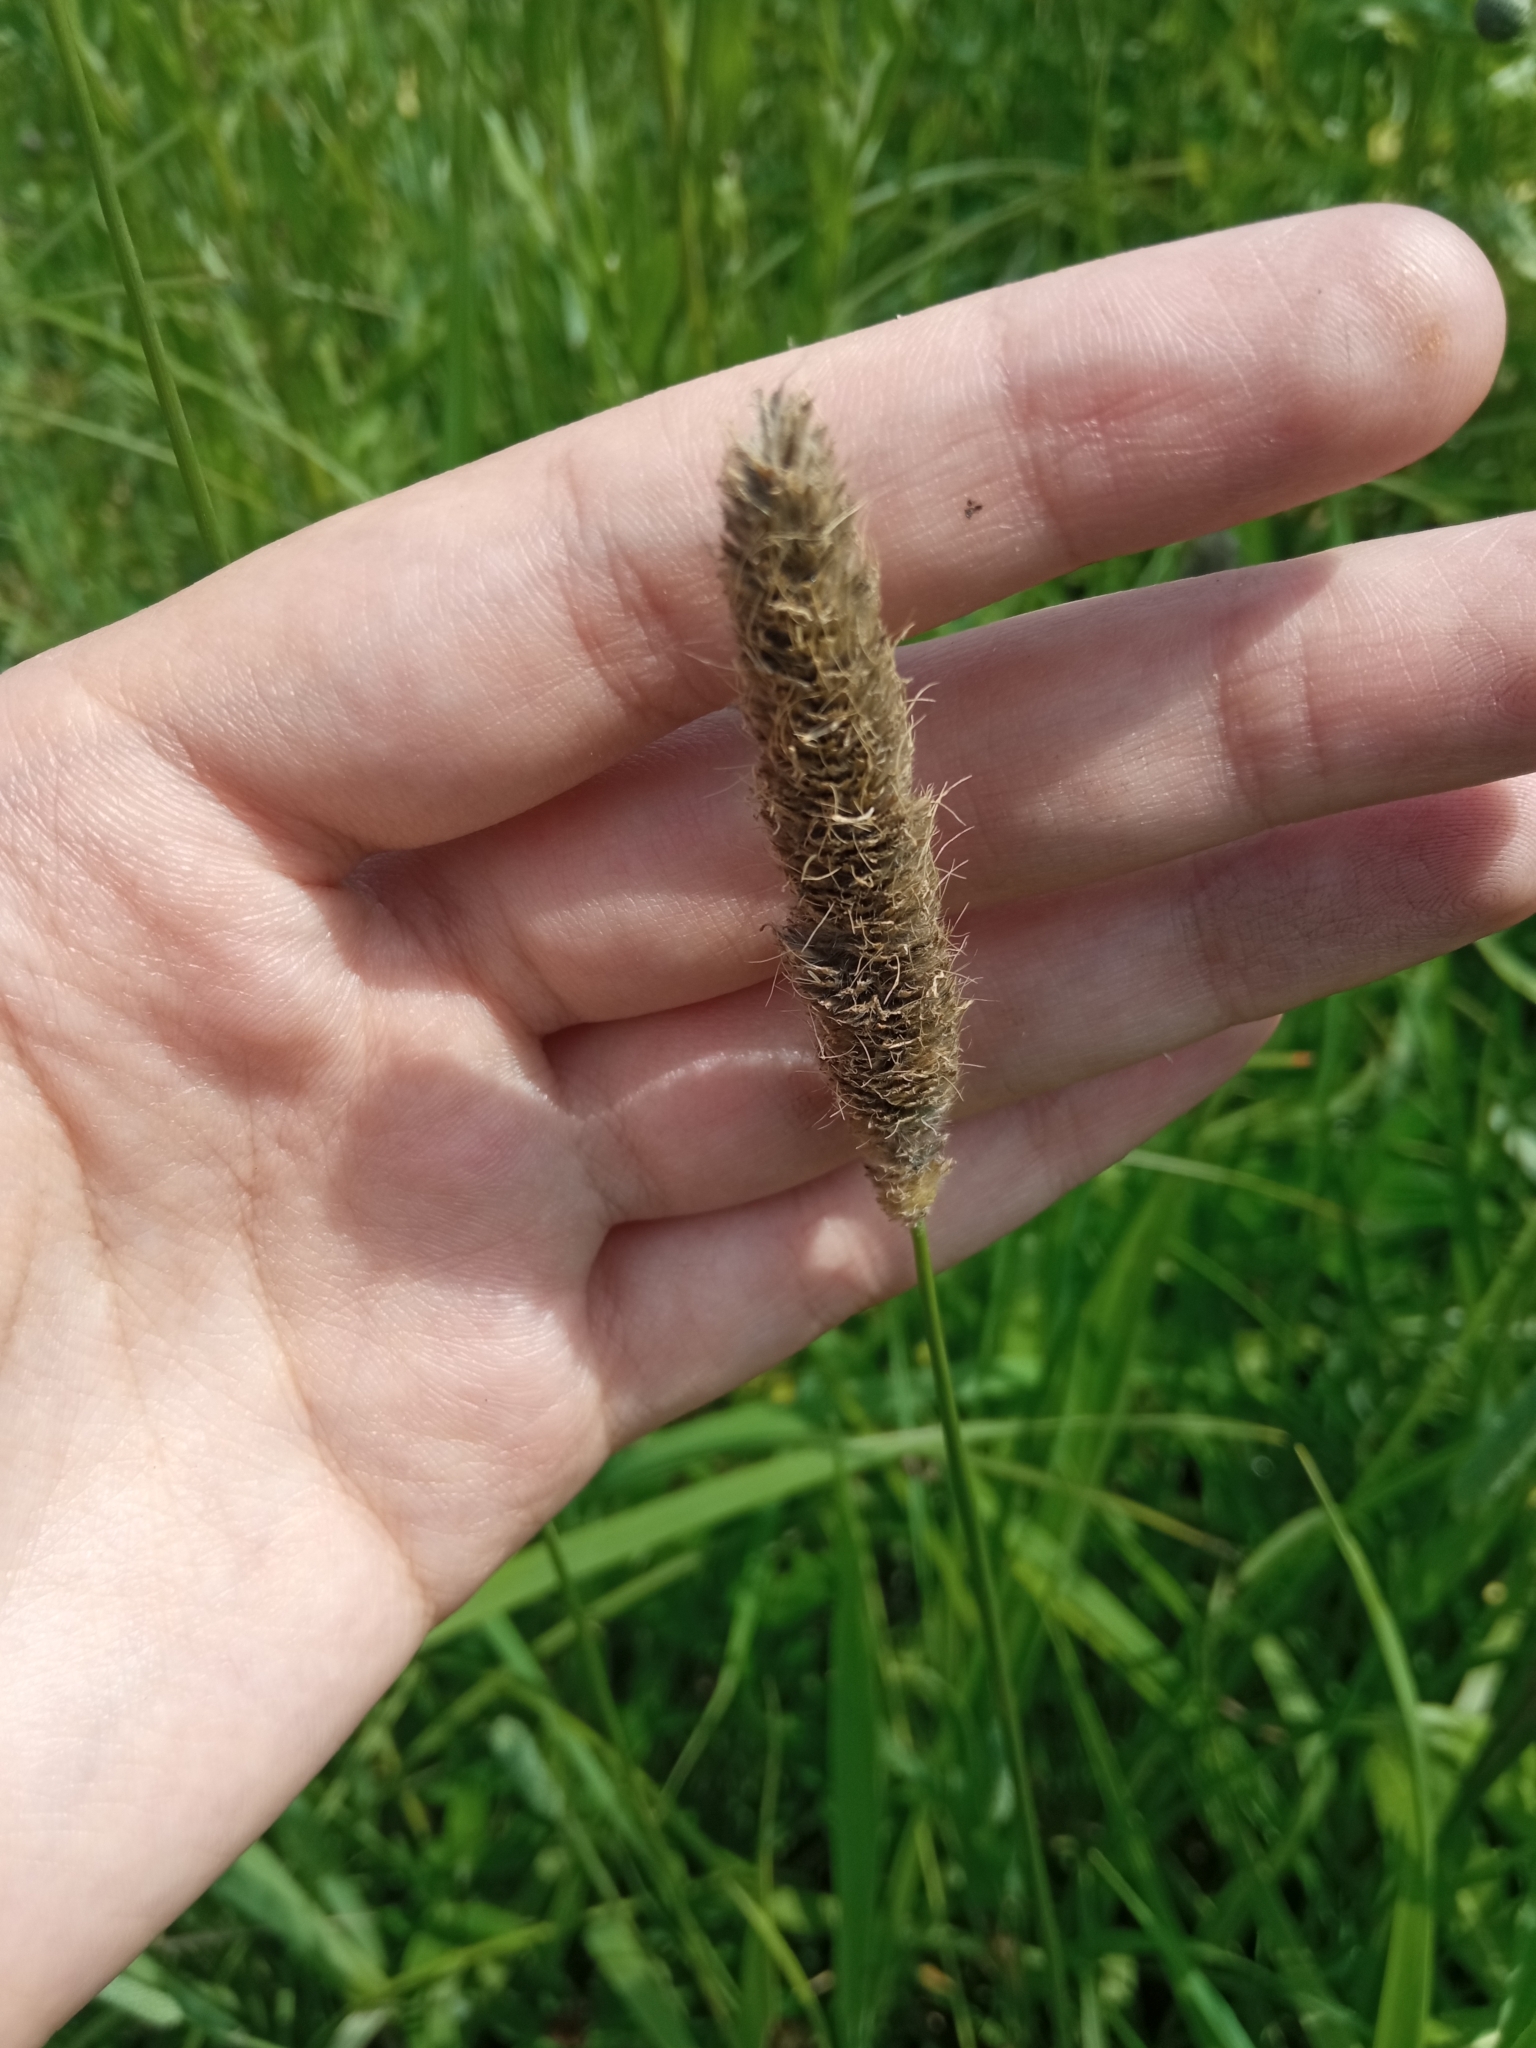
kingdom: Plantae
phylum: Tracheophyta
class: Liliopsida
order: Poales
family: Poaceae
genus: Alopecurus
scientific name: Alopecurus pratensis
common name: Meadow foxtail
